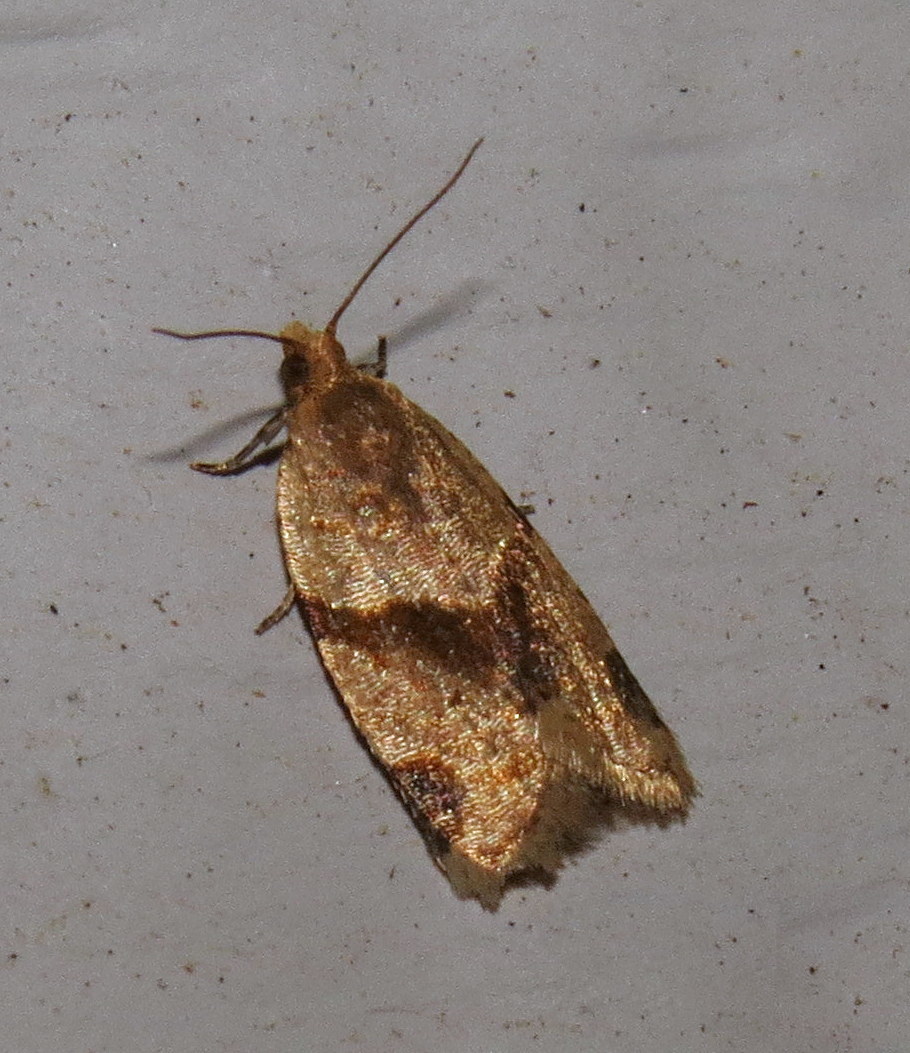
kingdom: Animalia
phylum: Arthropoda
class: Insecta
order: Lepidoptera
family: Tortricidae
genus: Clepsis
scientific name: Clepsis peritana
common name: Garden tortrix
